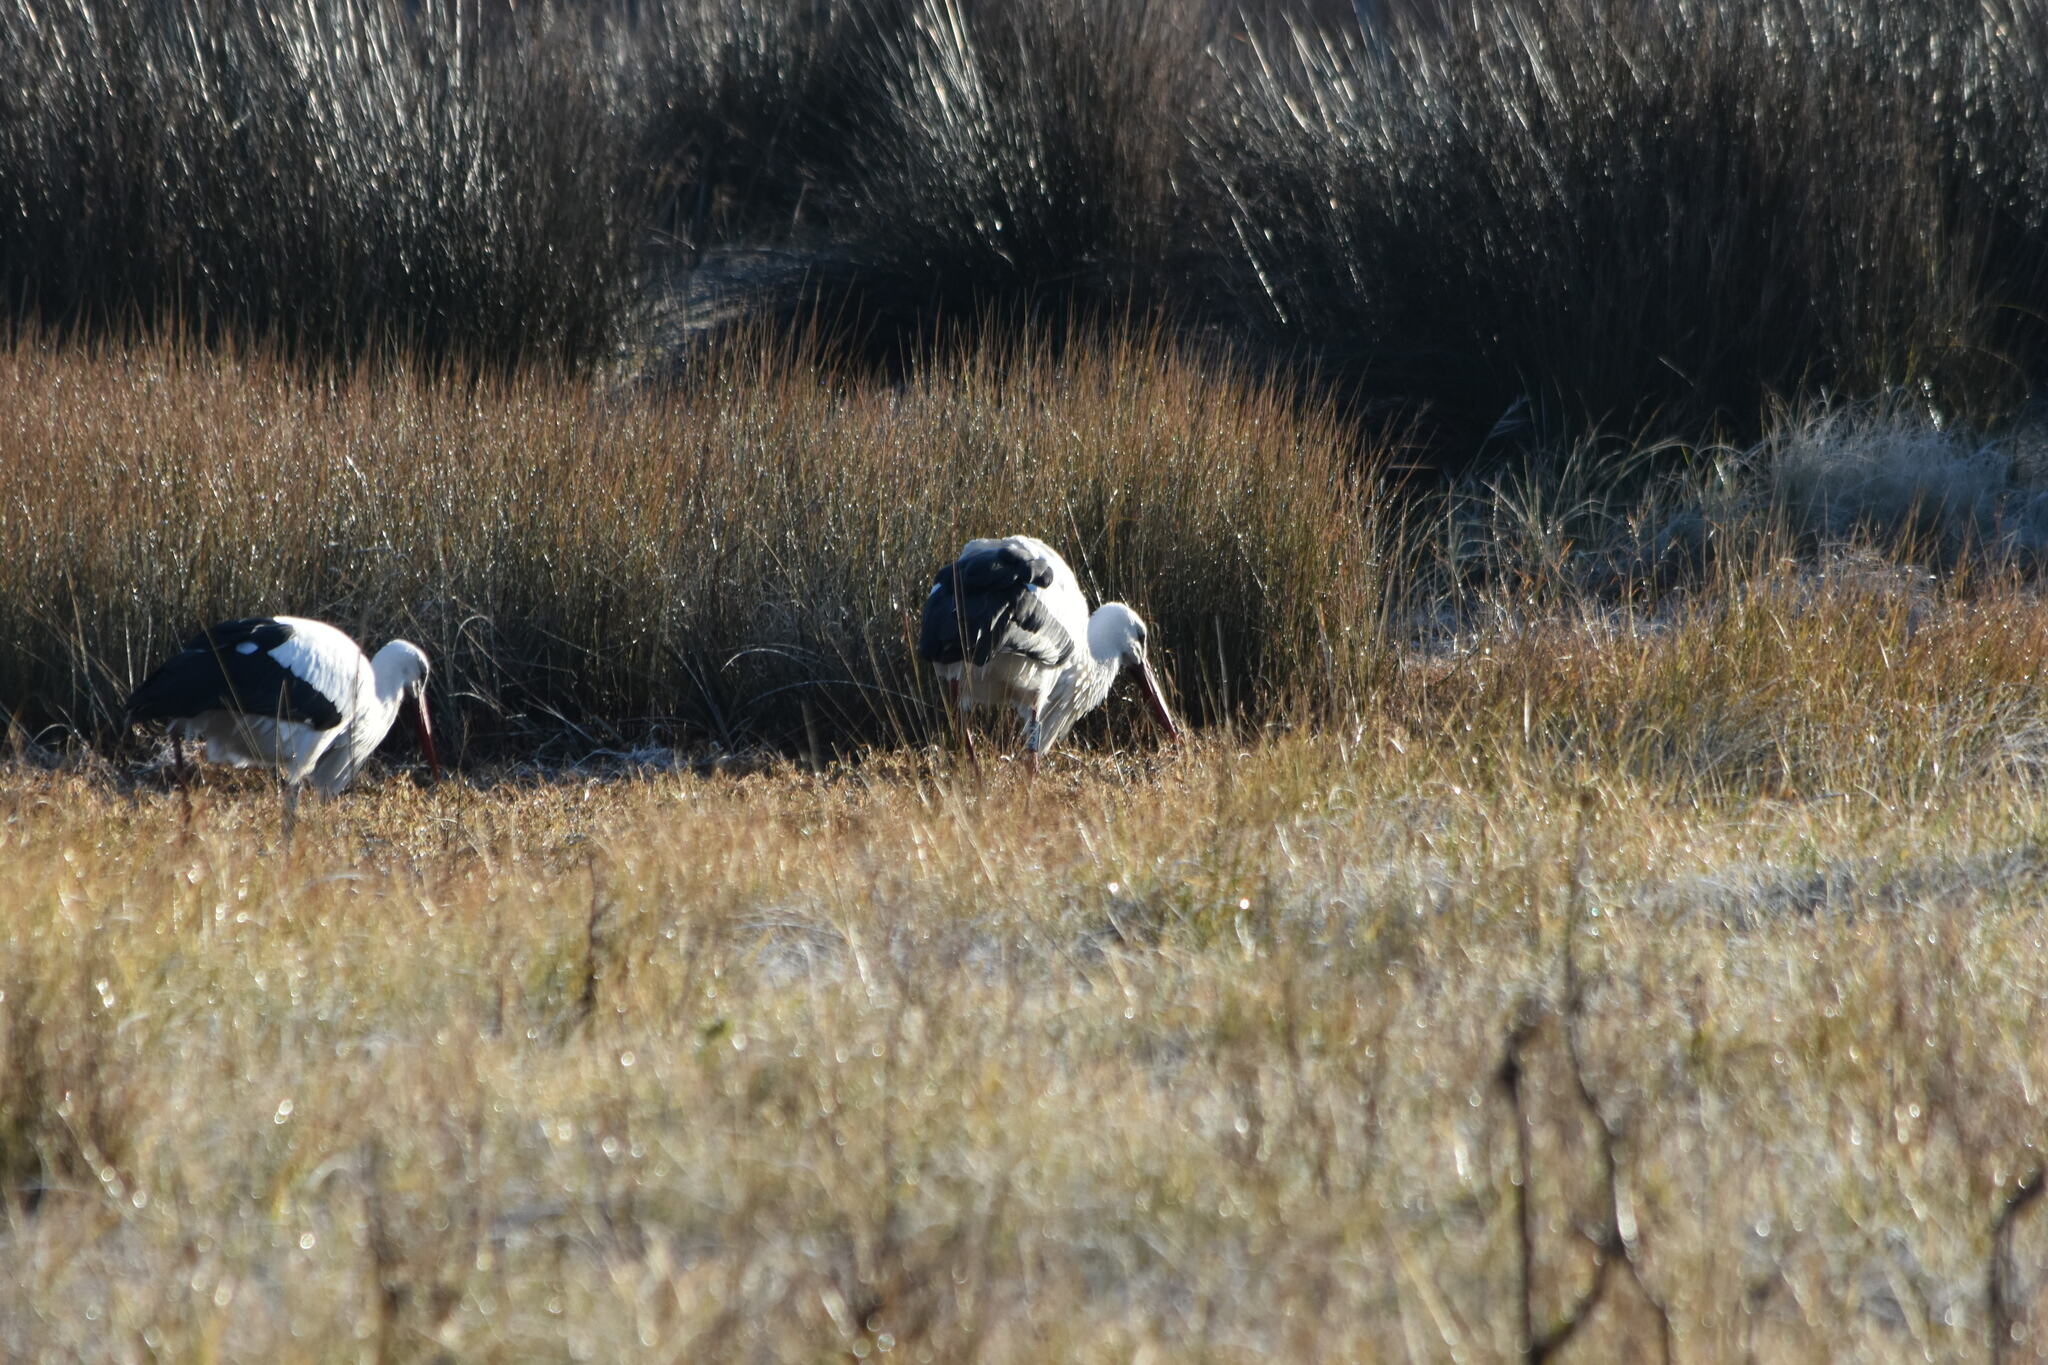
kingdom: Animalia
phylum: Chordata
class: Aves
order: Ciconiiformes
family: Ciconiidae
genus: Ciconia
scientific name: Ciconia ciconia
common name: White stork
